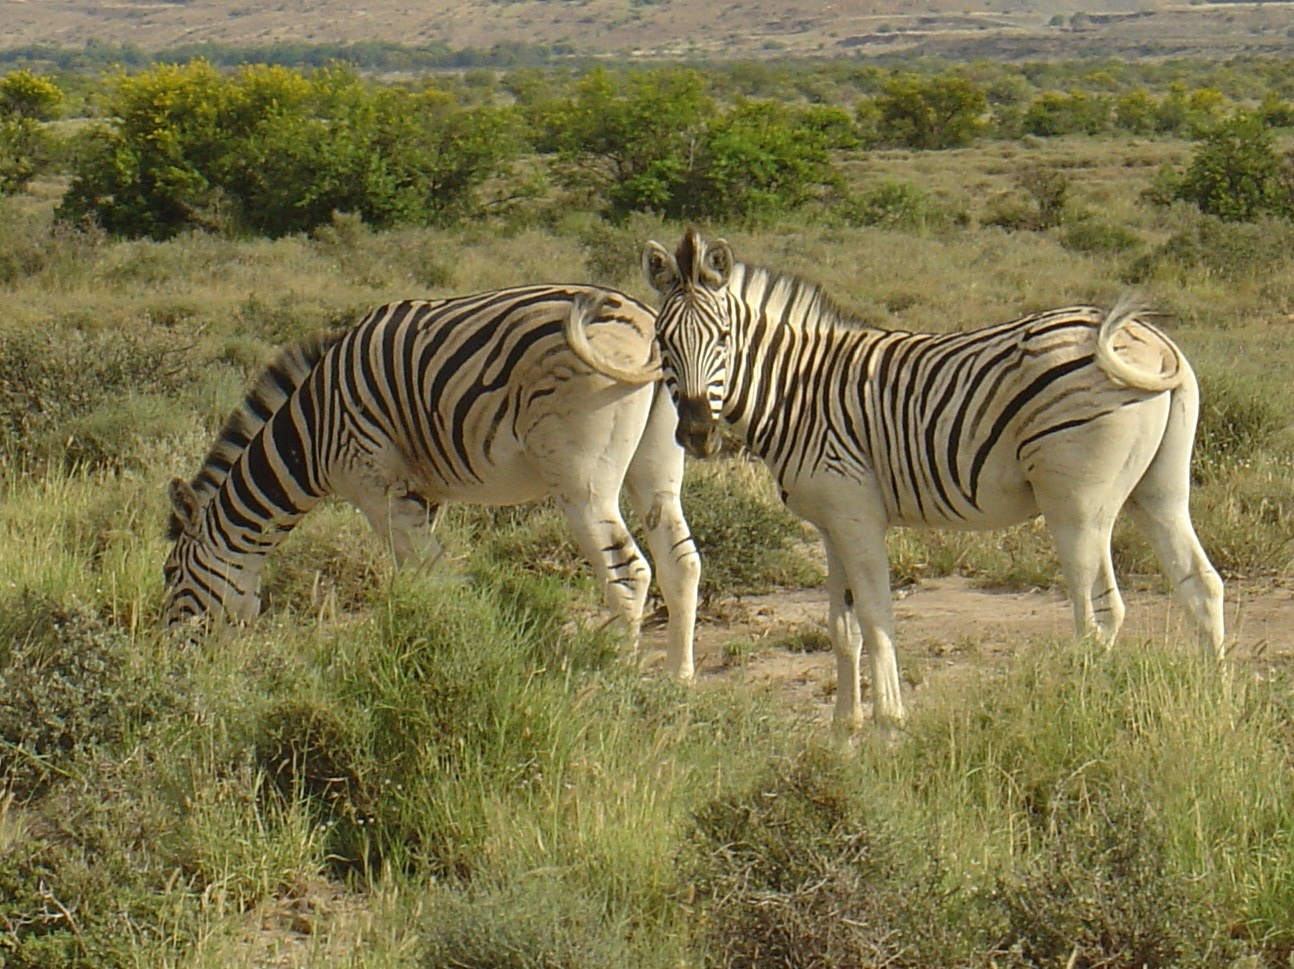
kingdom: Animalia
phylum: Chordata
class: Mammalia
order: Perissodactyla
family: Equidae
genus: Equus
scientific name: Equus quagga
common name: Plains zebra
